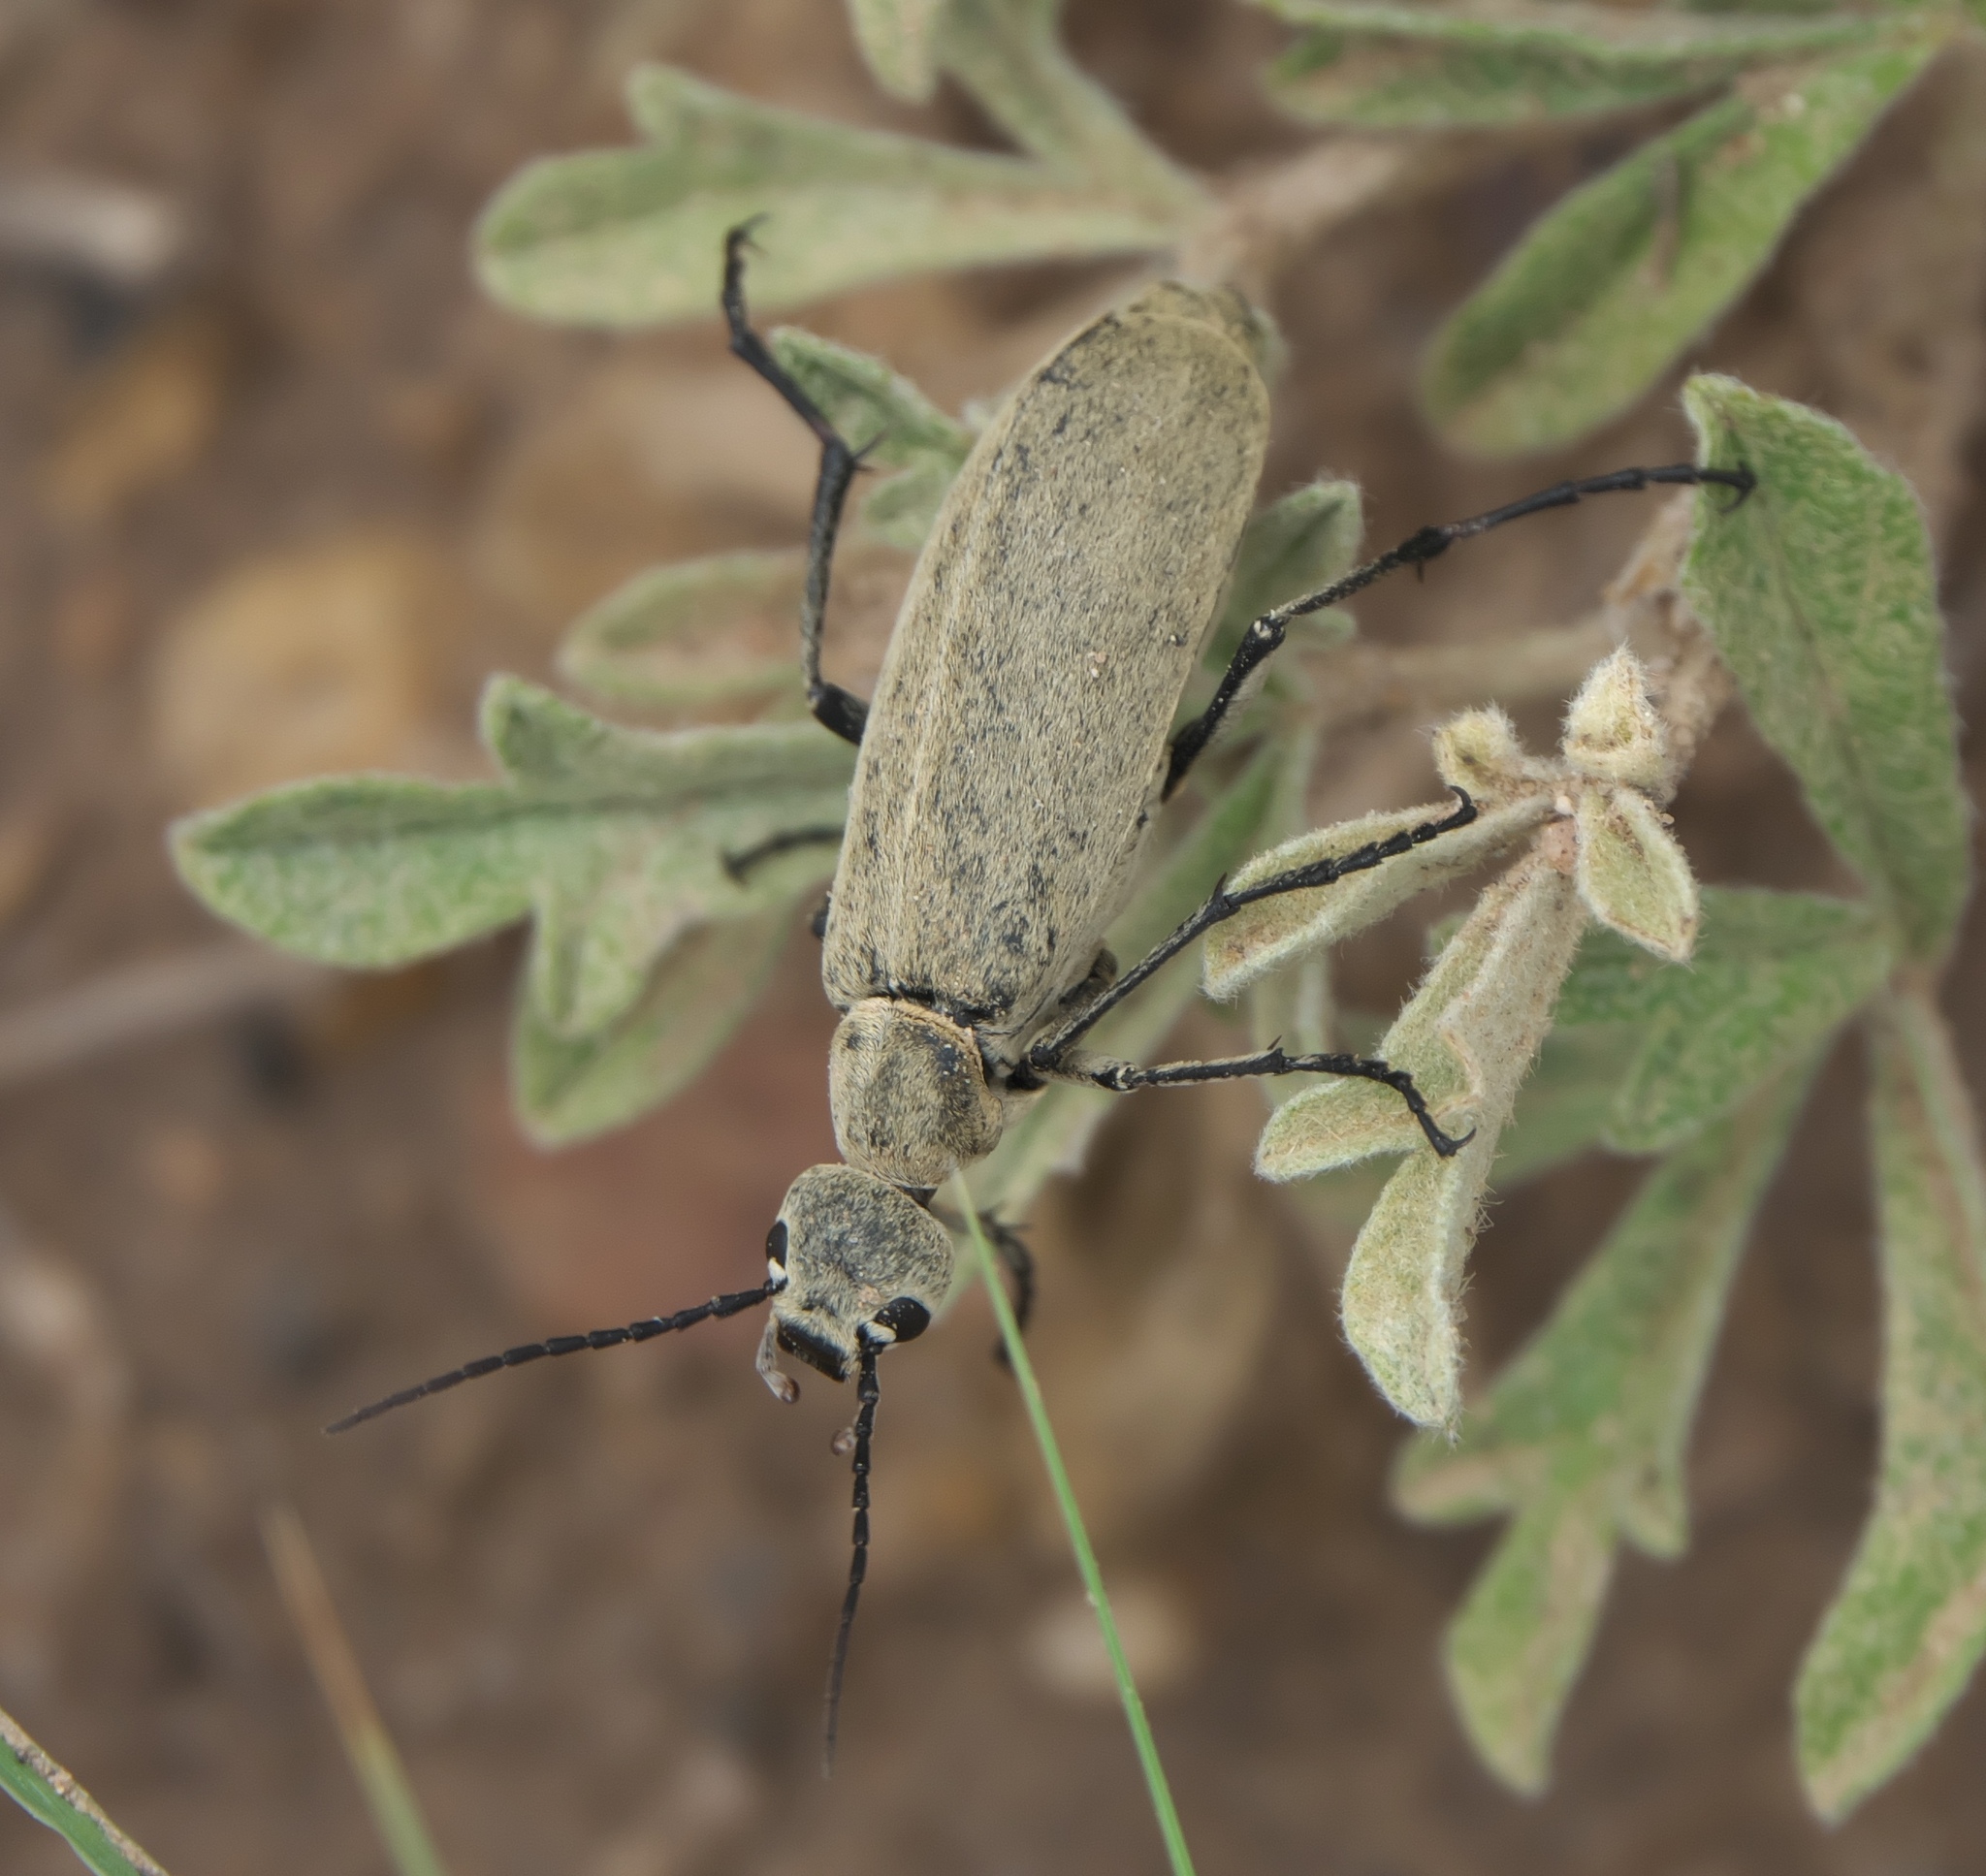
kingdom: Animalia
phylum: Arthropoda
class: Insecta
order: Coleoptera
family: Meloidae
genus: Epicauta
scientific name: Epicauta immaculata
